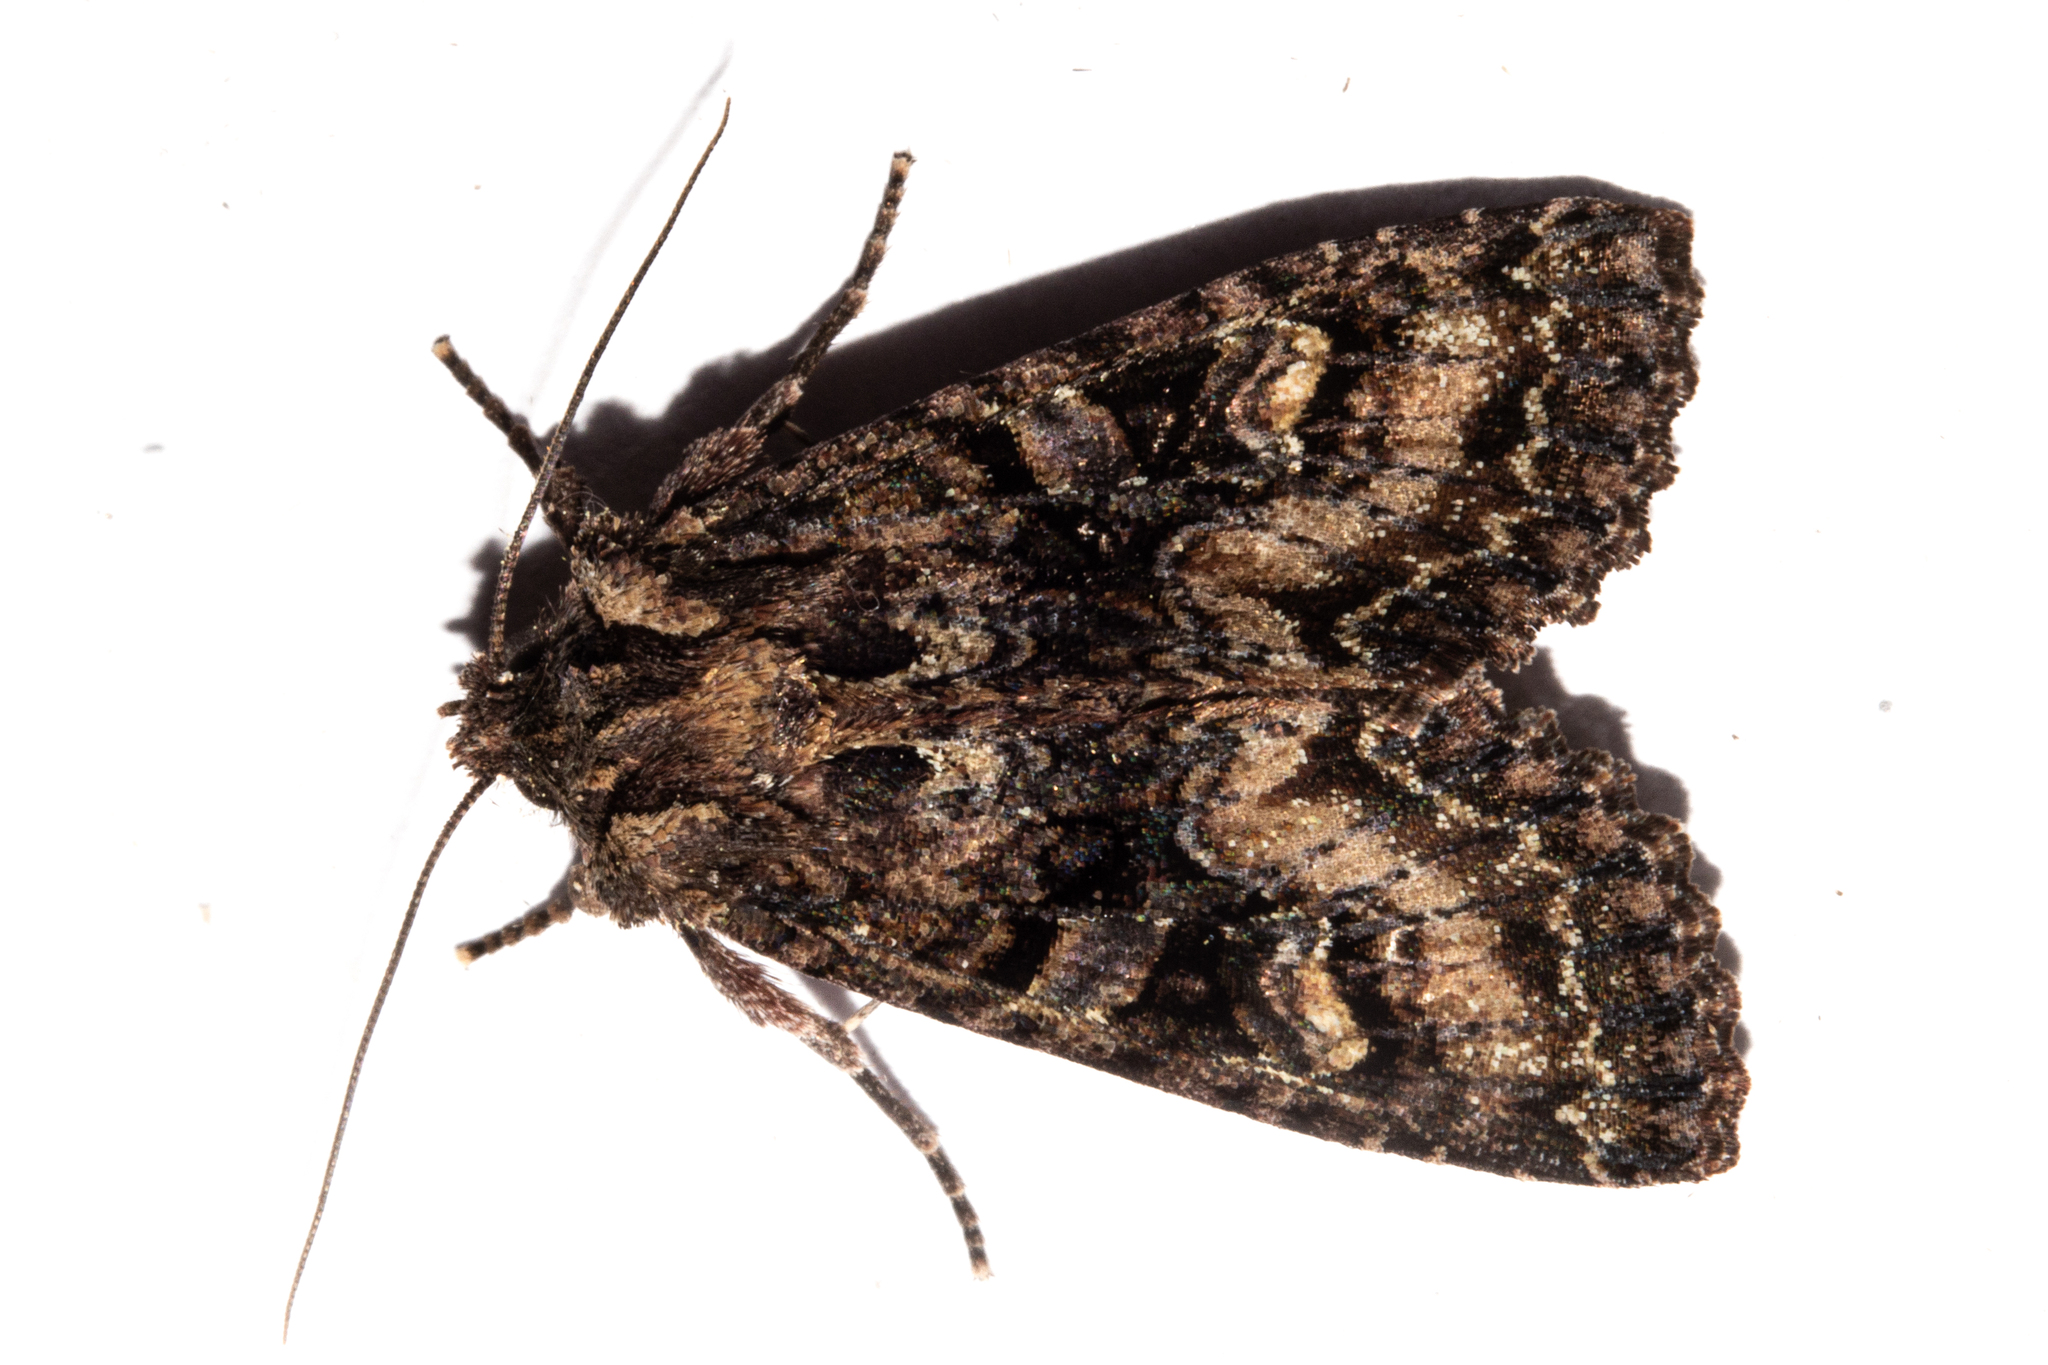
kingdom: Animalia
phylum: Arthropoda
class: Insecta
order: Lepidoptera
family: Noctuidae
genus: Meterana
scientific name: Meterana dotata
